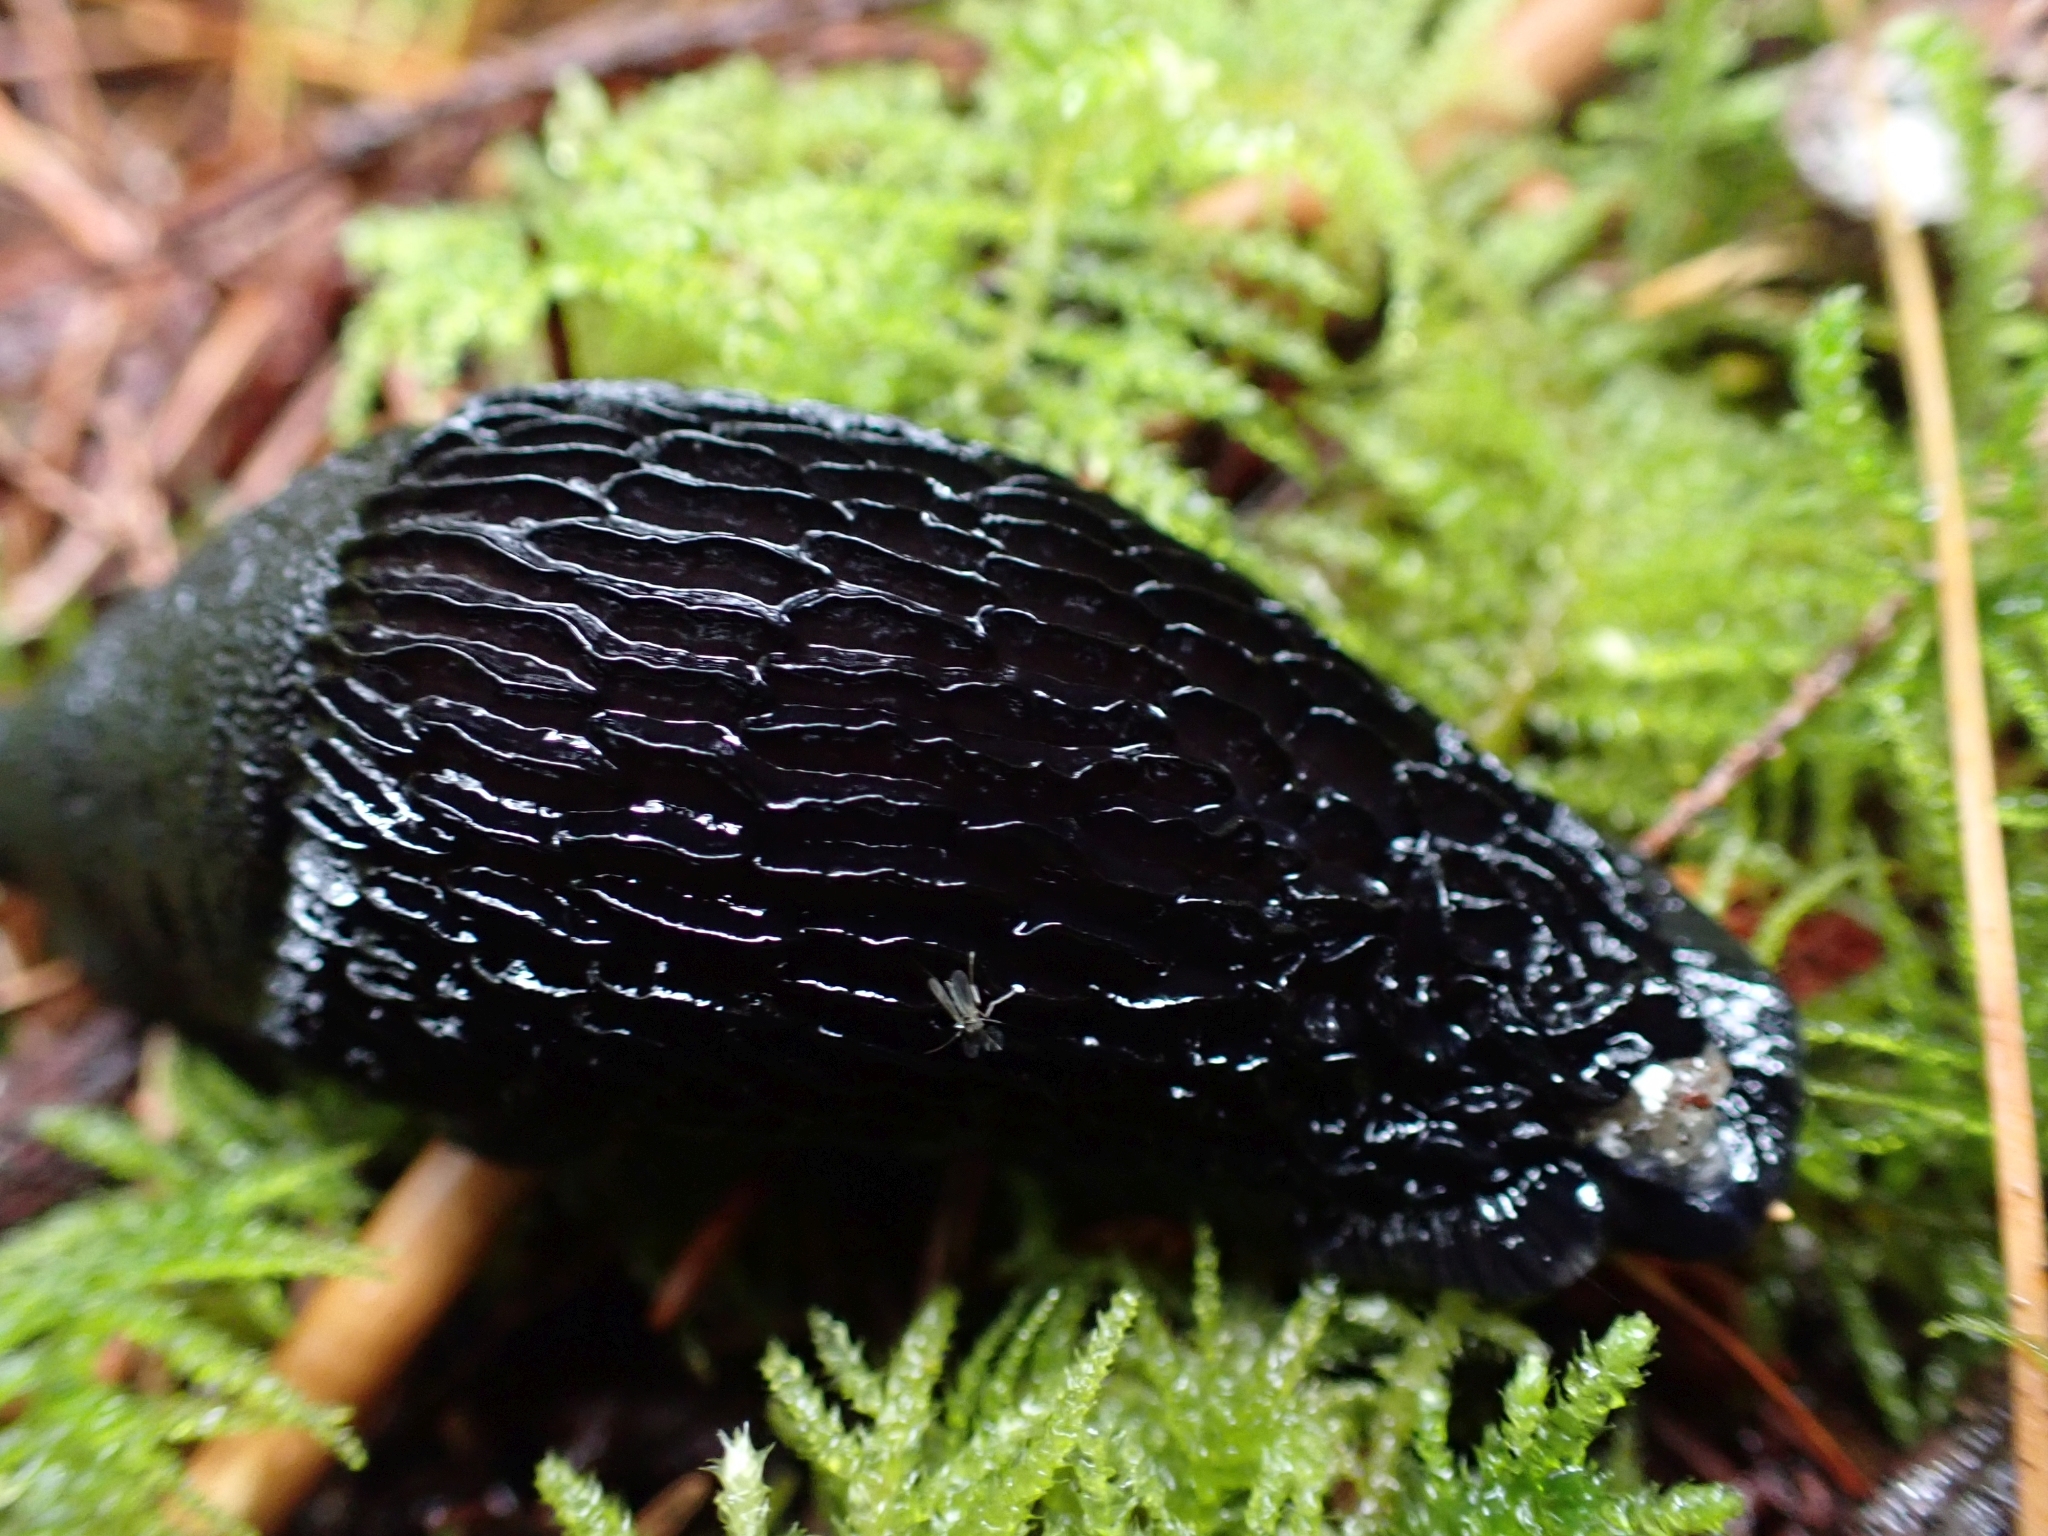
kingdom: Animalia
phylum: Mollusca
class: Gastropoda
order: Stylommatophora
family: Arionidae
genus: Arion
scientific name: Arion
